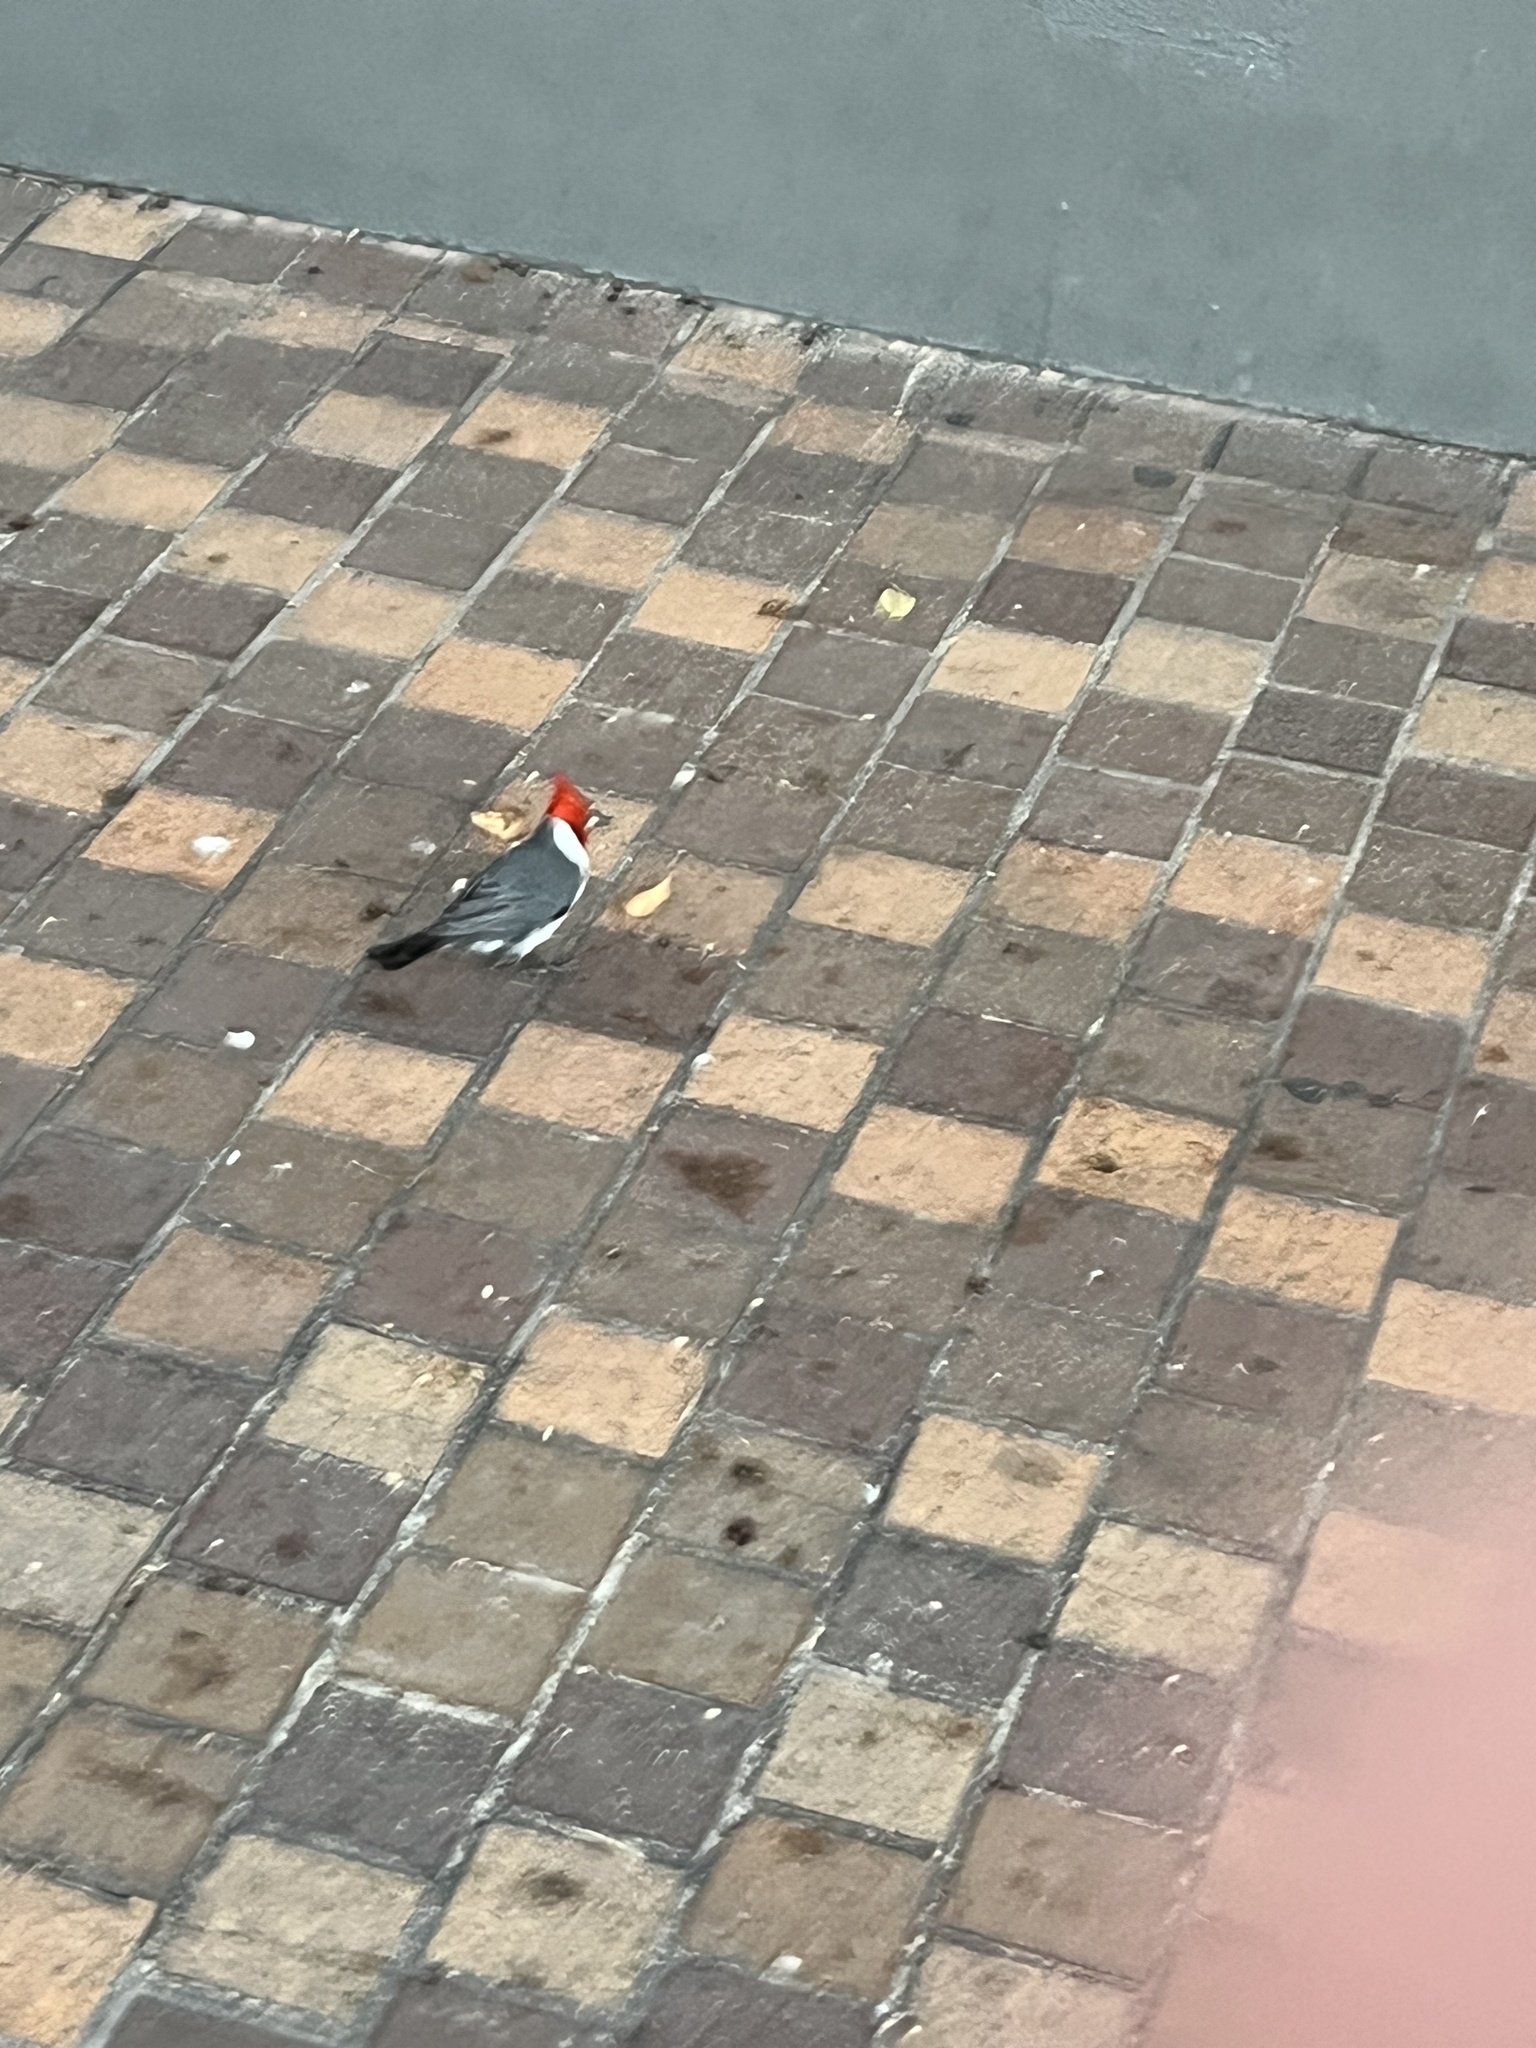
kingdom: Animalia
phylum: Chordata
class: Aves
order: Passeriformes
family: Thraupidae
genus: Paroaria
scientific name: Paroaria coronata
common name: Red-crested cardinal
